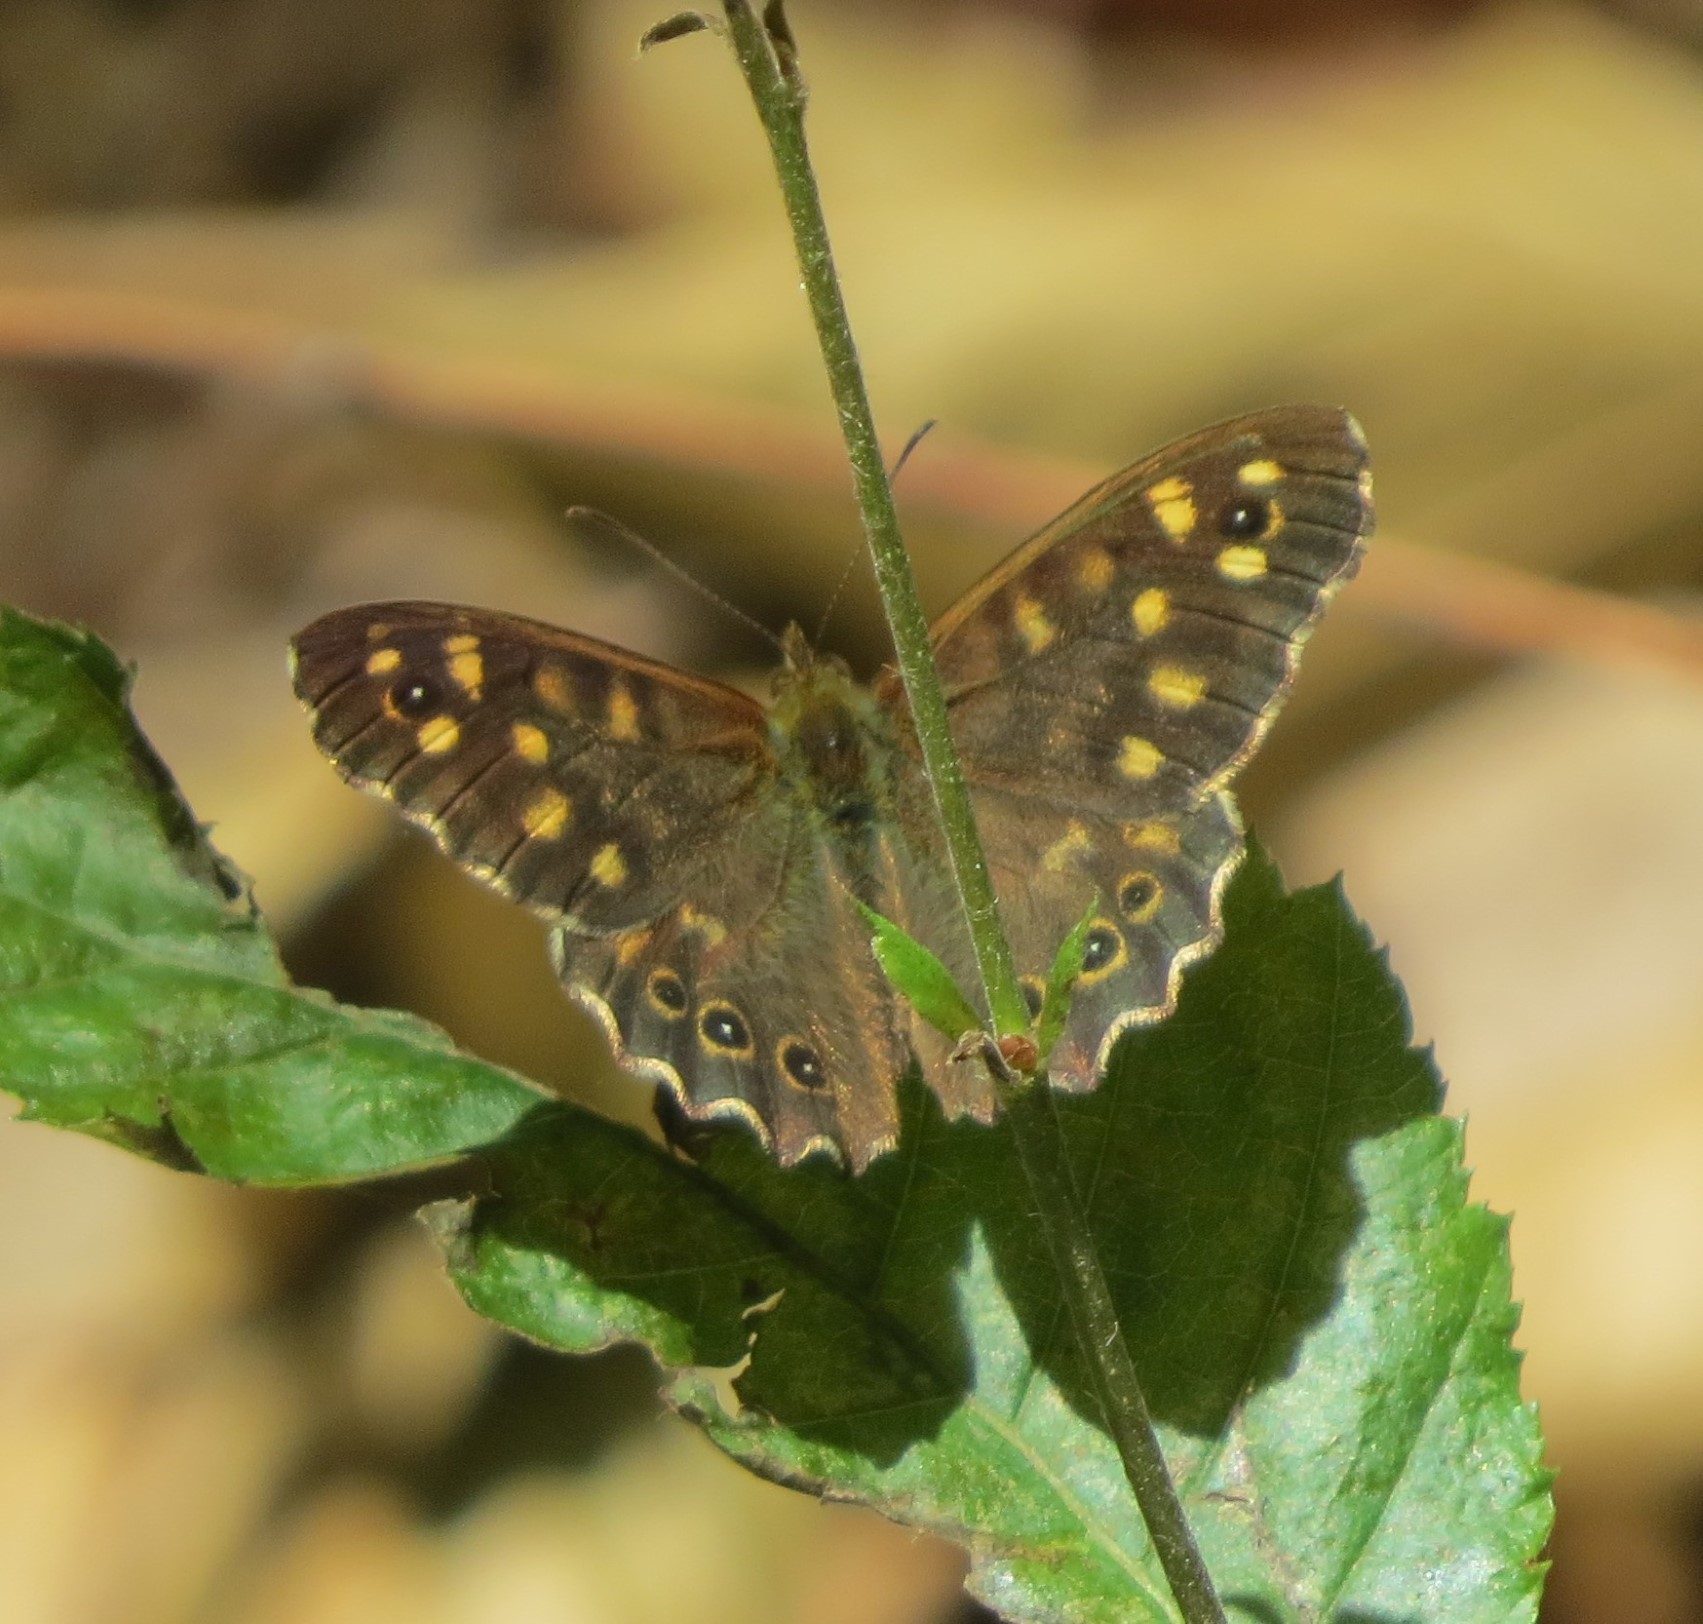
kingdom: Animalia
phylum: Arthropoda
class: Insecta
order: Lepidoptera
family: Nymphalidae
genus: Pararge
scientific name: Pararge aegeria
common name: Speckled wood
